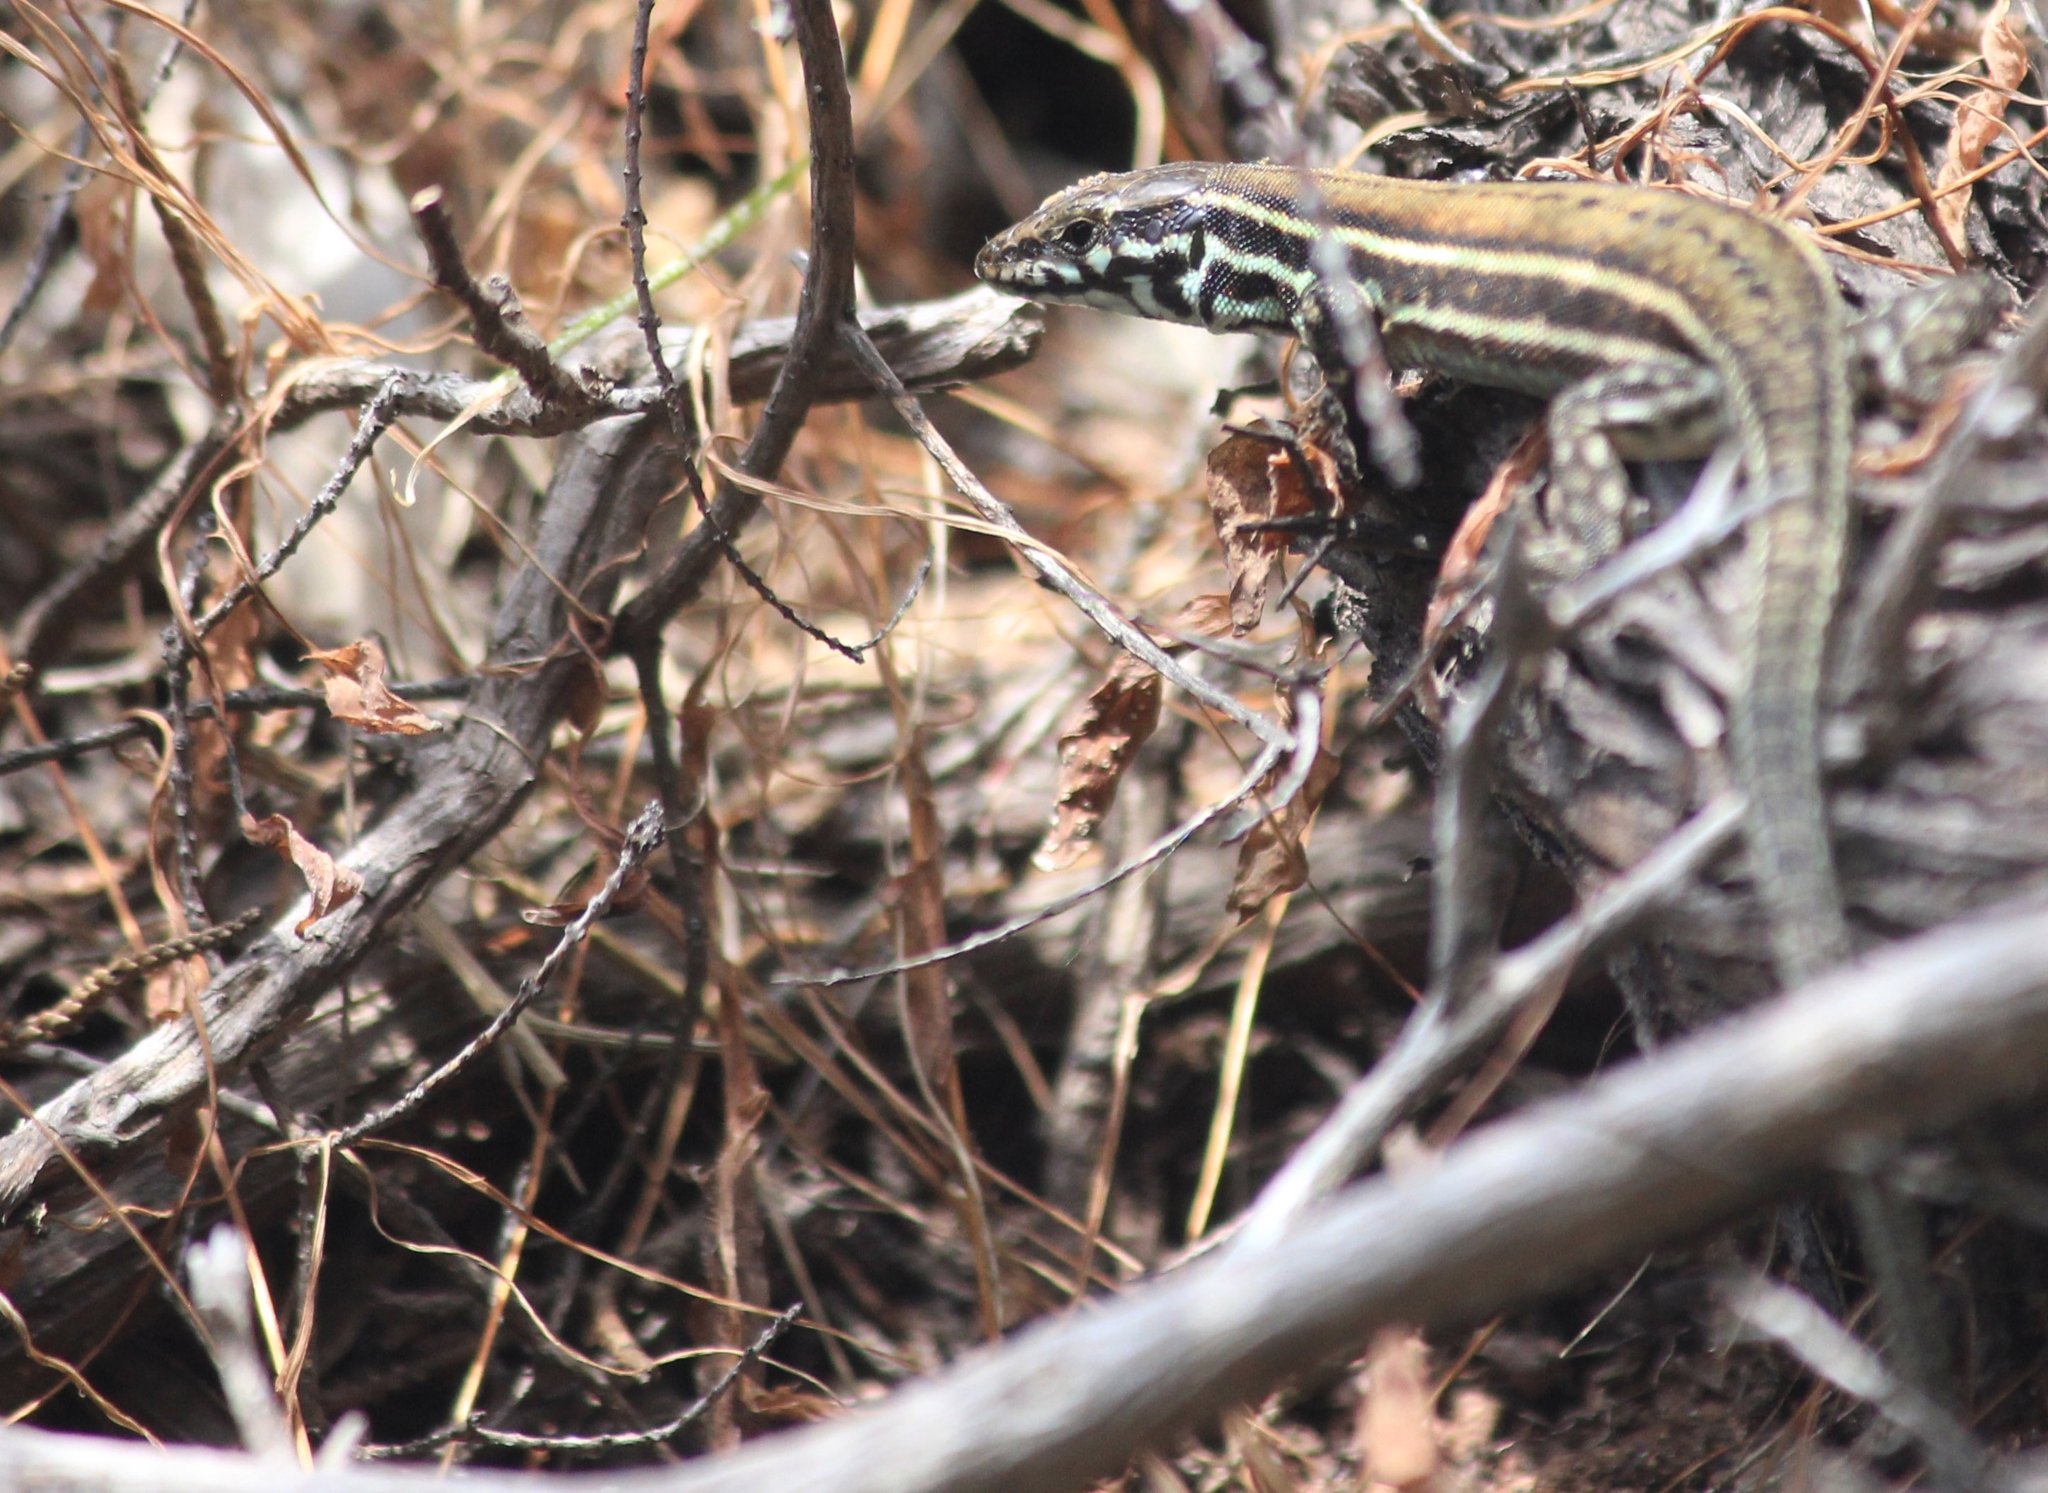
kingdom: Animalia
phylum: Chordata
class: Squamata
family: Lacertidae
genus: Podarcis
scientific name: Podarcis milensis
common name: Milos wall lizard
